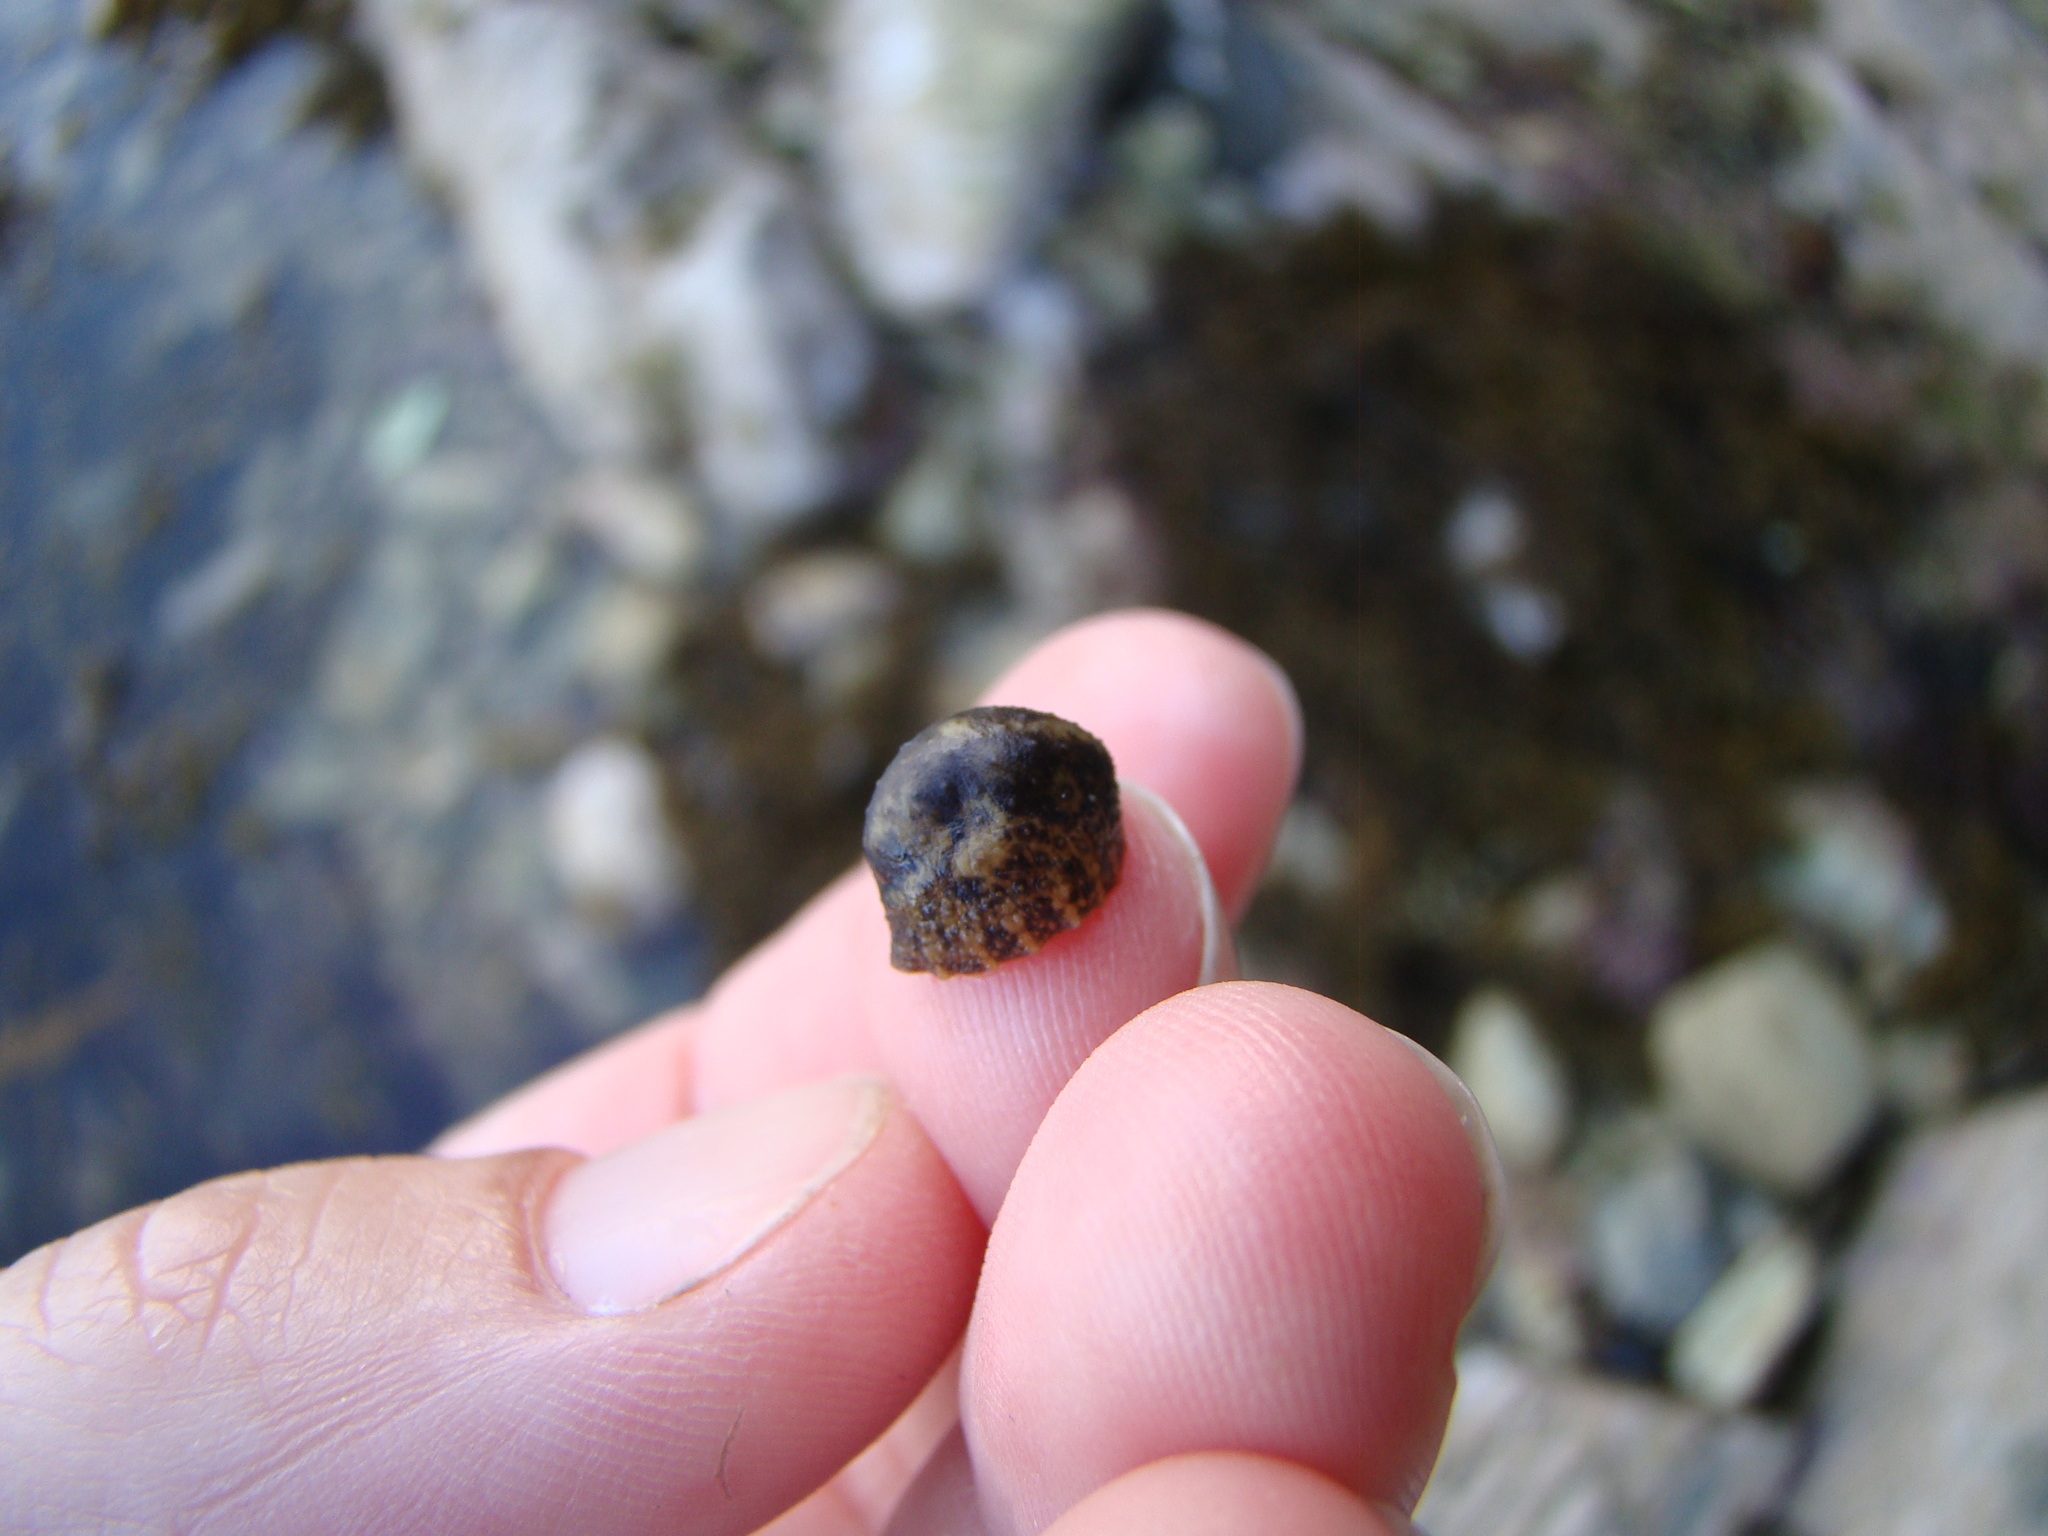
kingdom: Animalia
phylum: Mollusca
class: Gastropoda
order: Systellommatophora
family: Onchidiidae
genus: Onchidella
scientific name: Onchidella nigricans
